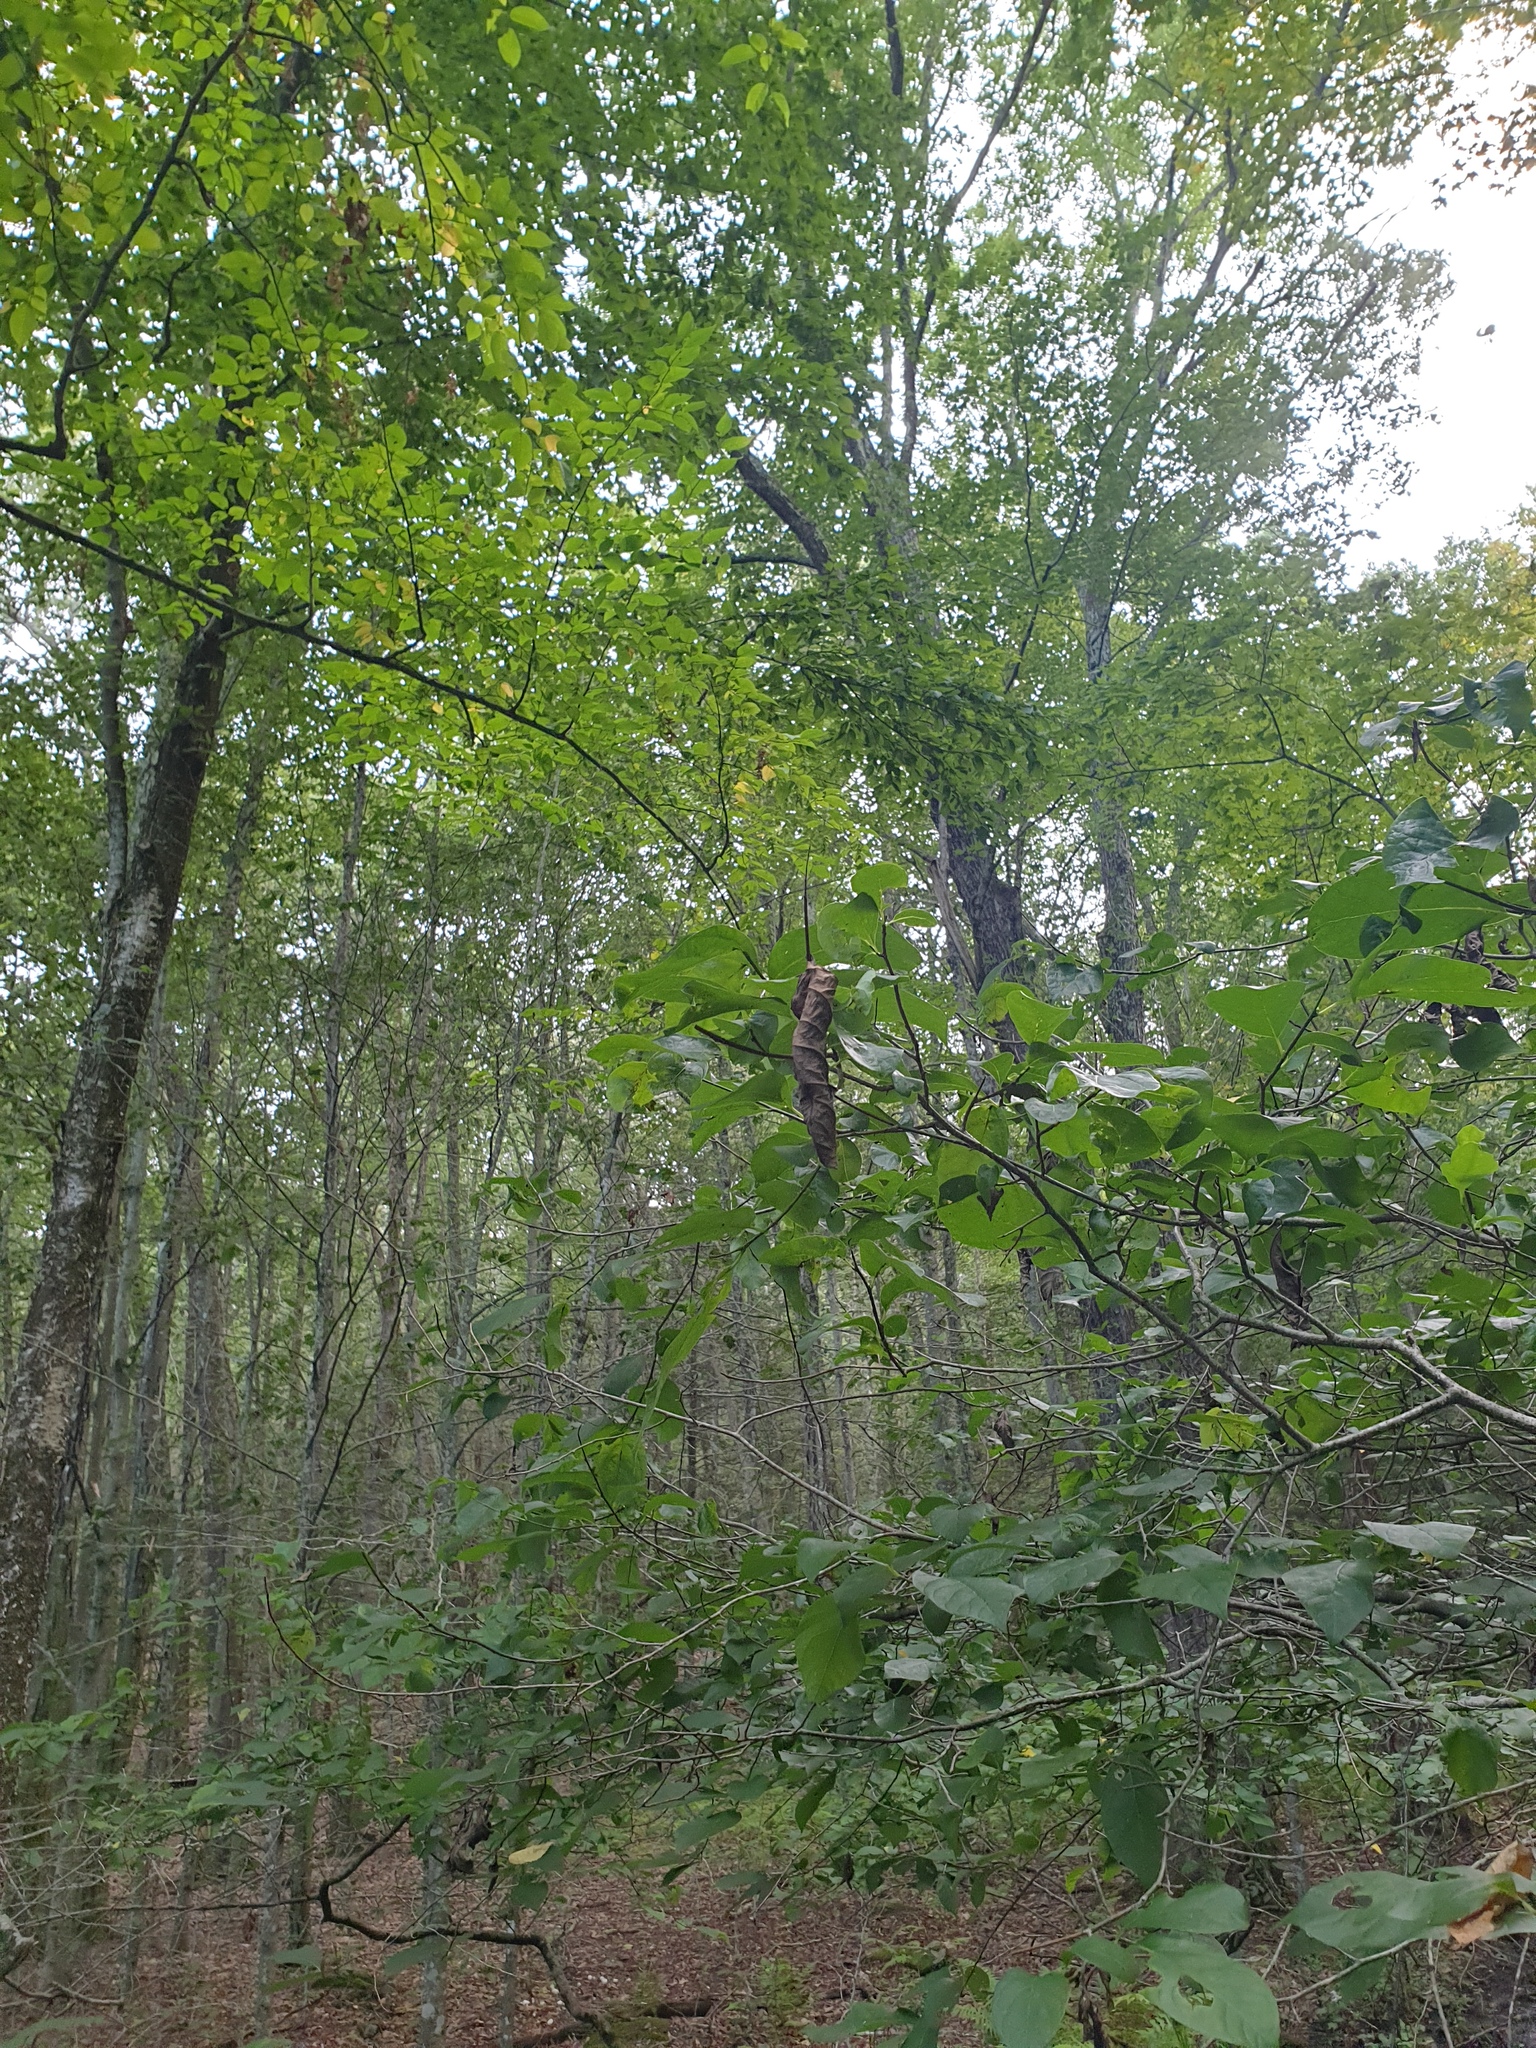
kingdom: Plantae
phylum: Tracheophyta
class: Magnoliopsida
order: Laurales
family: Lauraceae
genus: Lindera
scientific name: Lindera benzoin
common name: Spicebush
